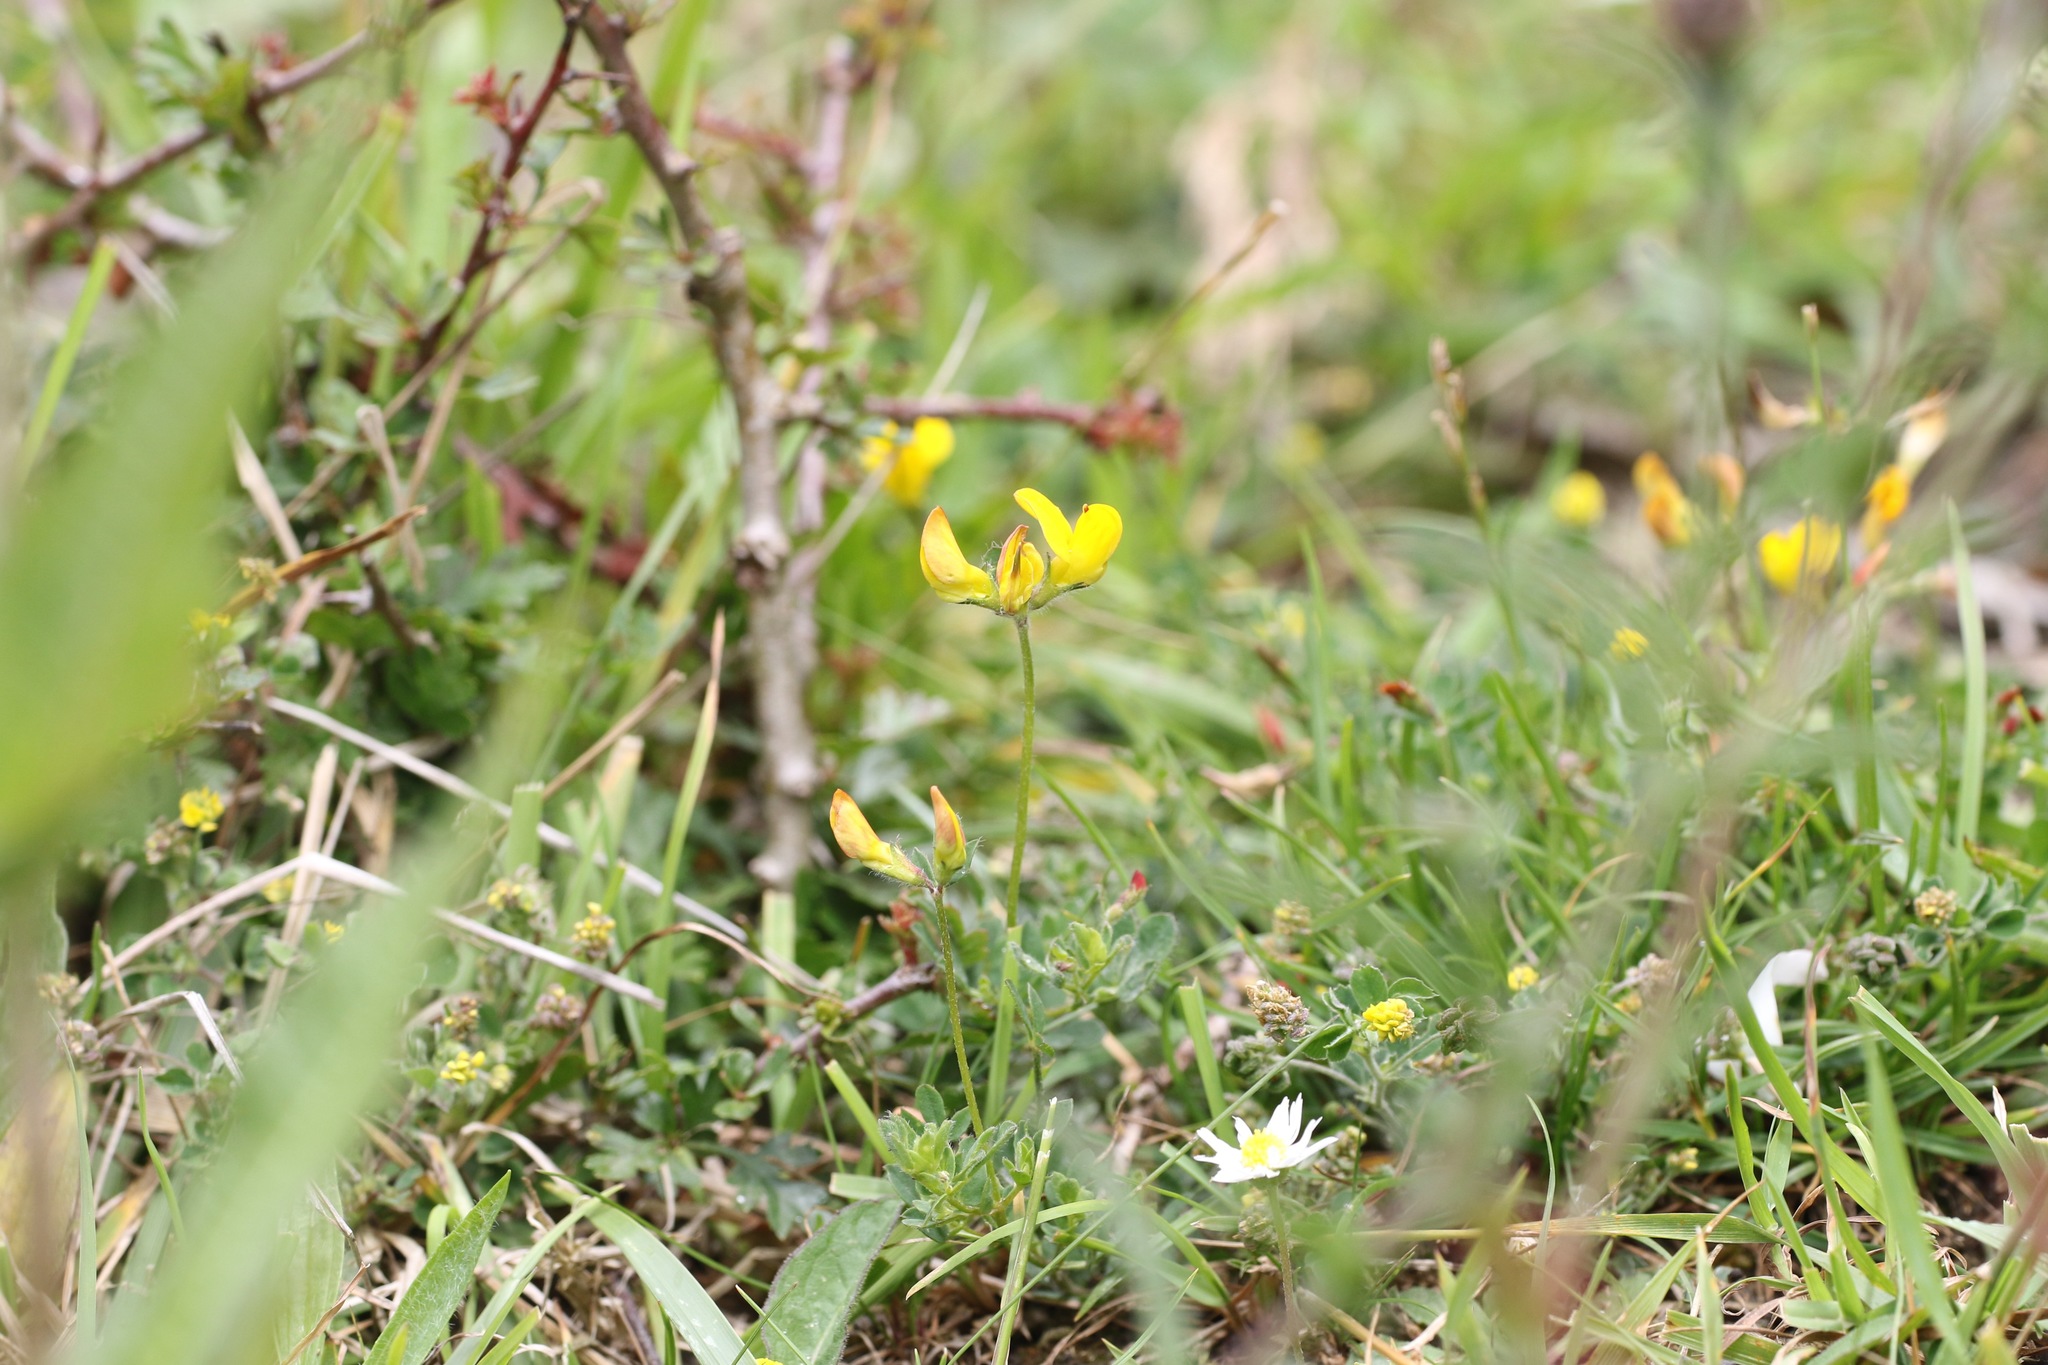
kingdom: Plantae
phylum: Tracheophyta
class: Magnoliopsida
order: Fabales
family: Fabaceae
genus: Lotus
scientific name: Lotus corniculatus
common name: Common bird's-foot-trefoil
